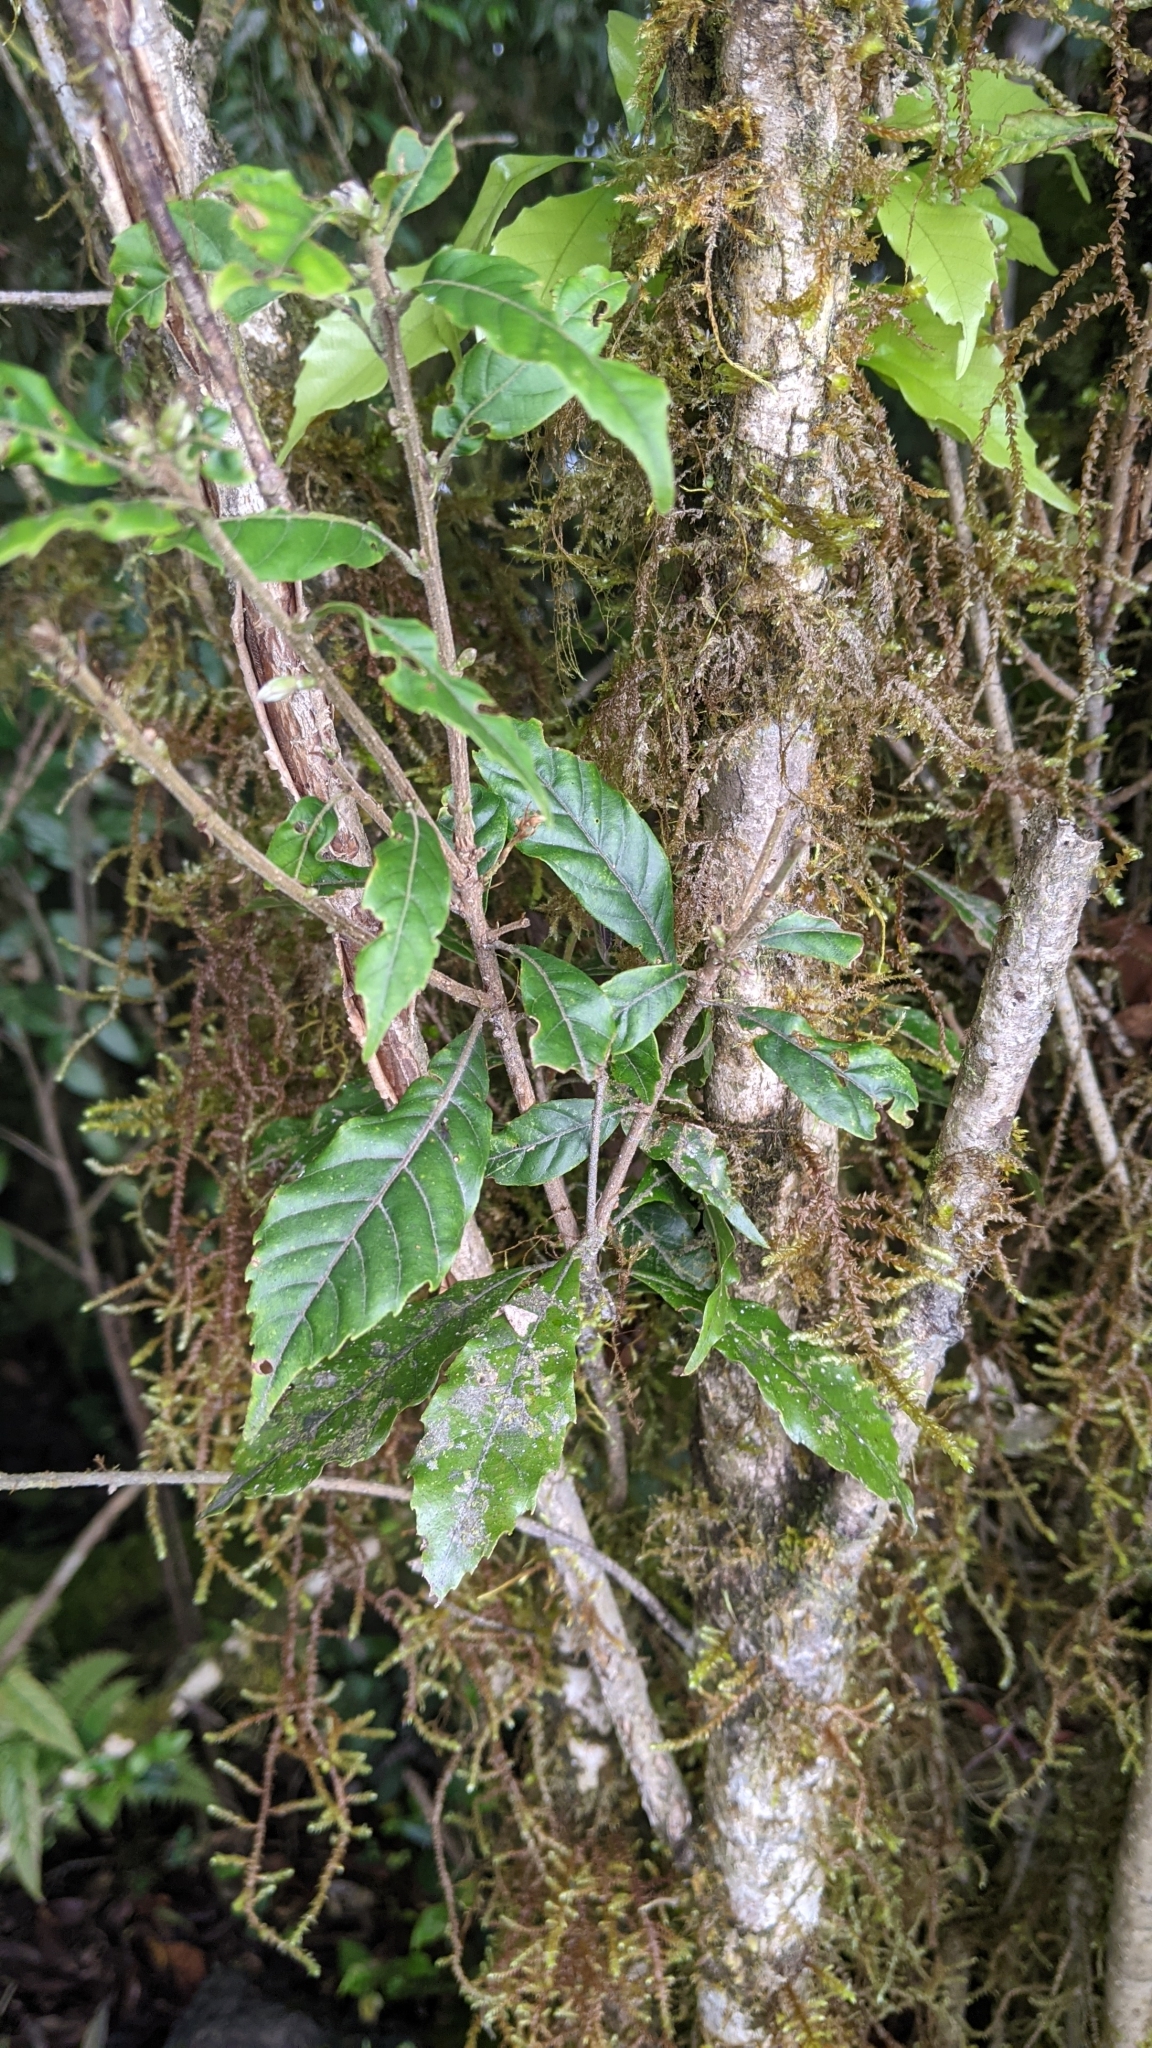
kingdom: Plantae
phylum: Tracheophyta
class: Magnoliopsida
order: Fagales
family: Fagaceae
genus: Lithocarpus
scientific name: Lithocarpus corneus
